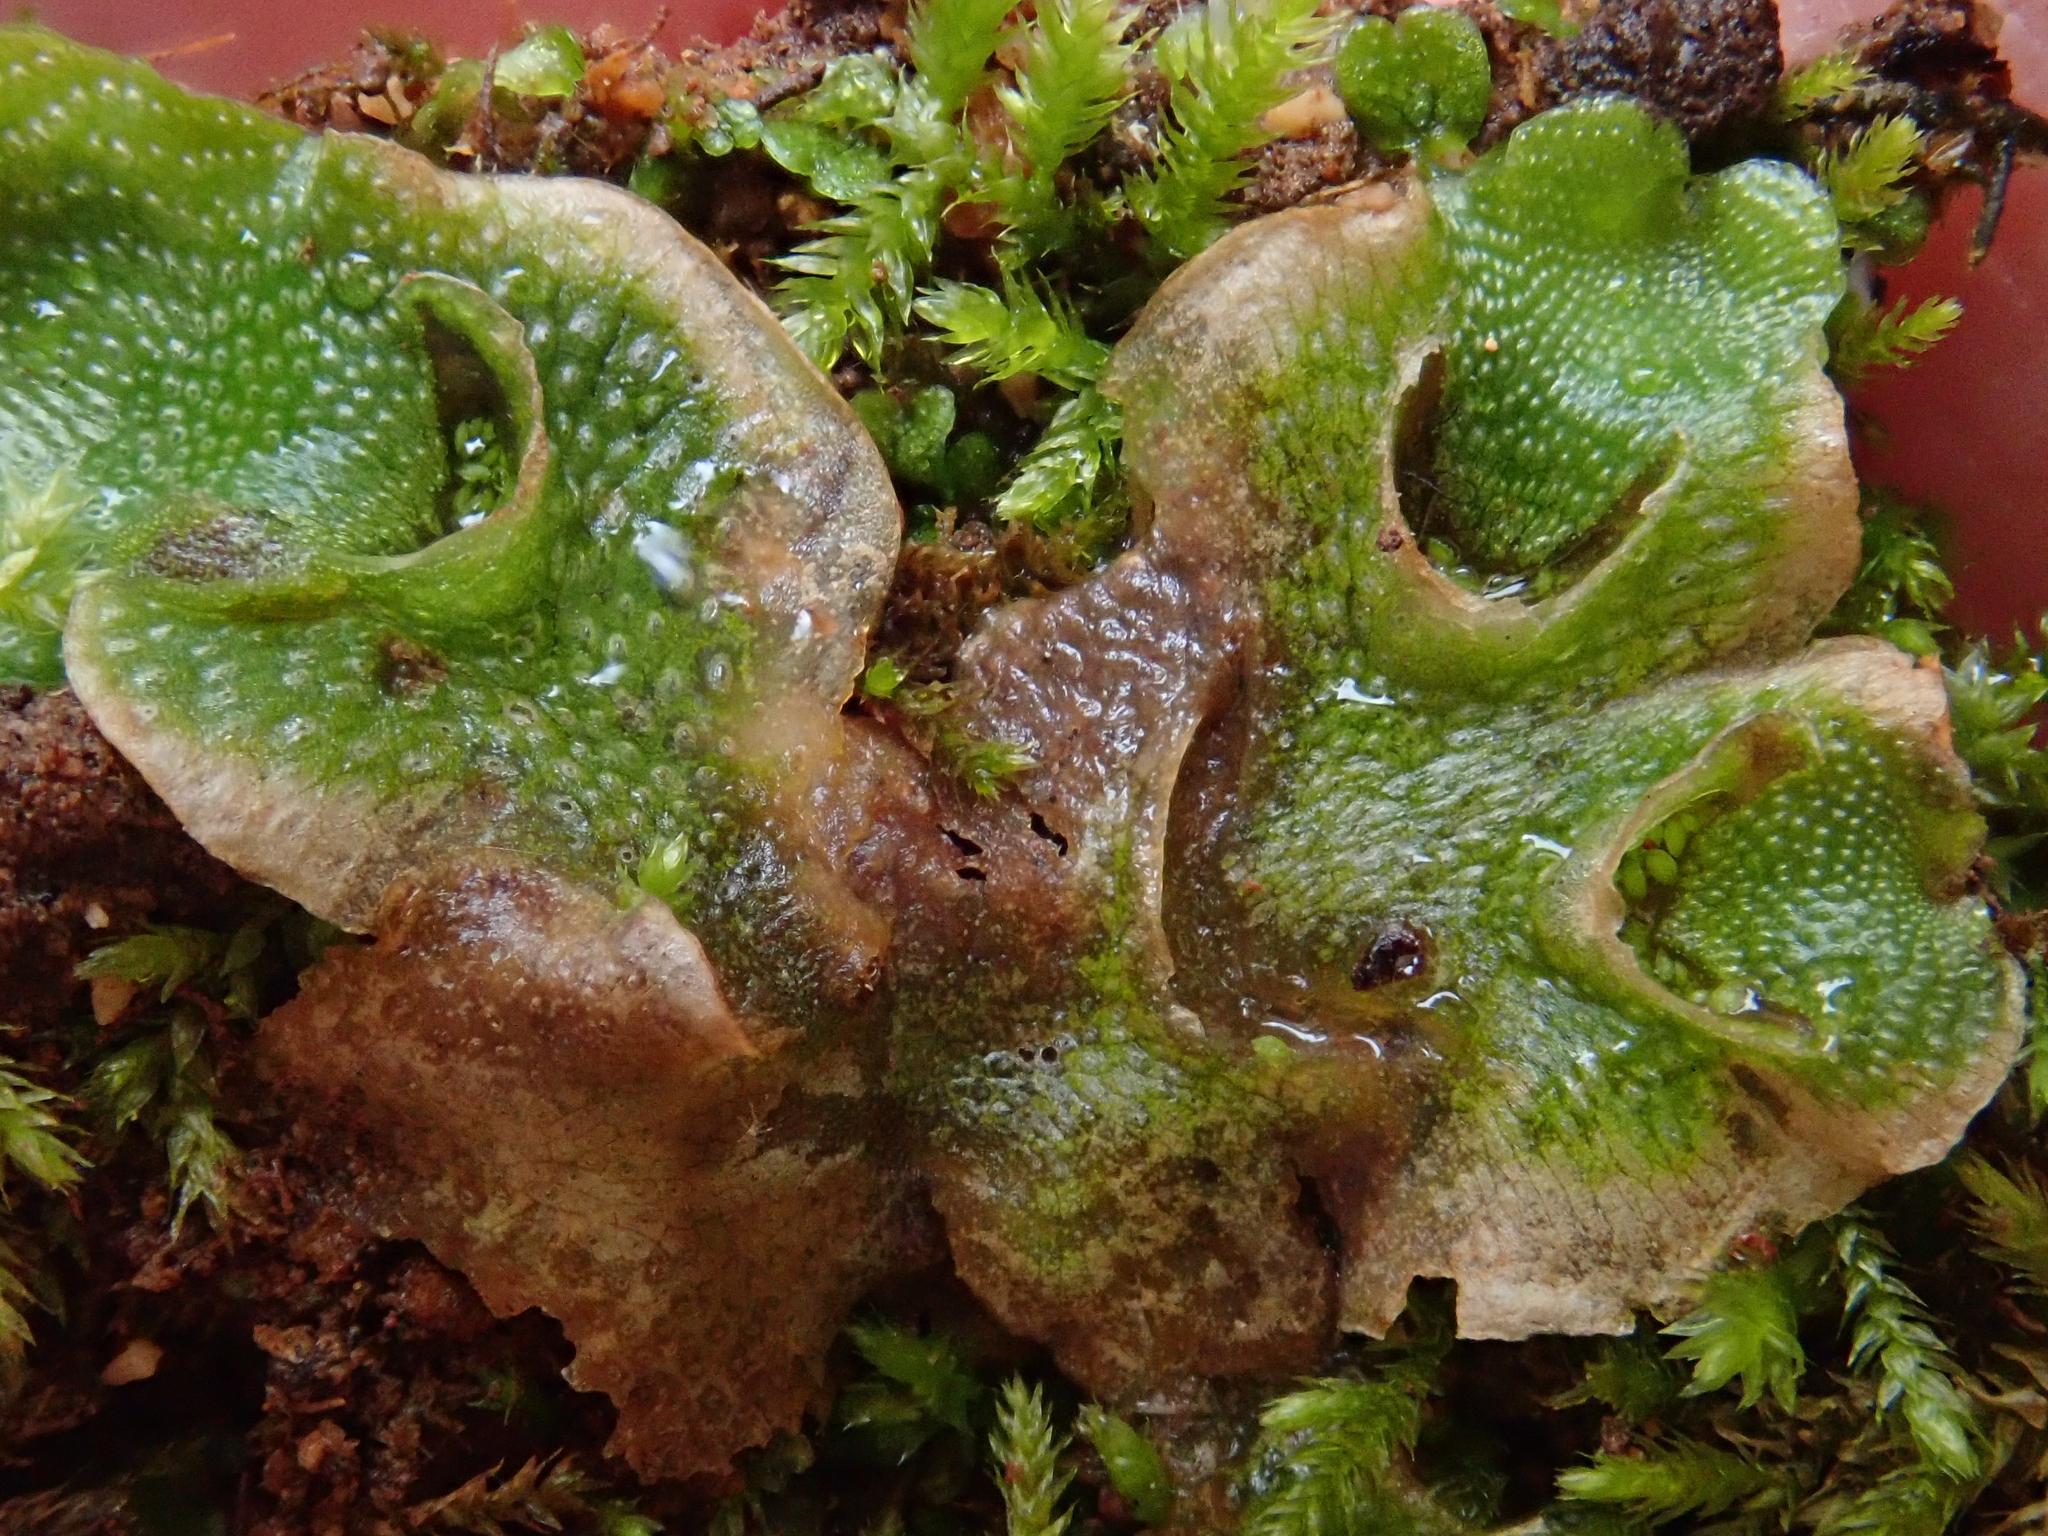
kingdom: Plantae
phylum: Marchantiophyta
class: Marchantiopsida
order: Lunulariales
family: Lunulariaceae
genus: Lunularia
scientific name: Lunularia cruciata
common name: Crescent-cup liverwort
